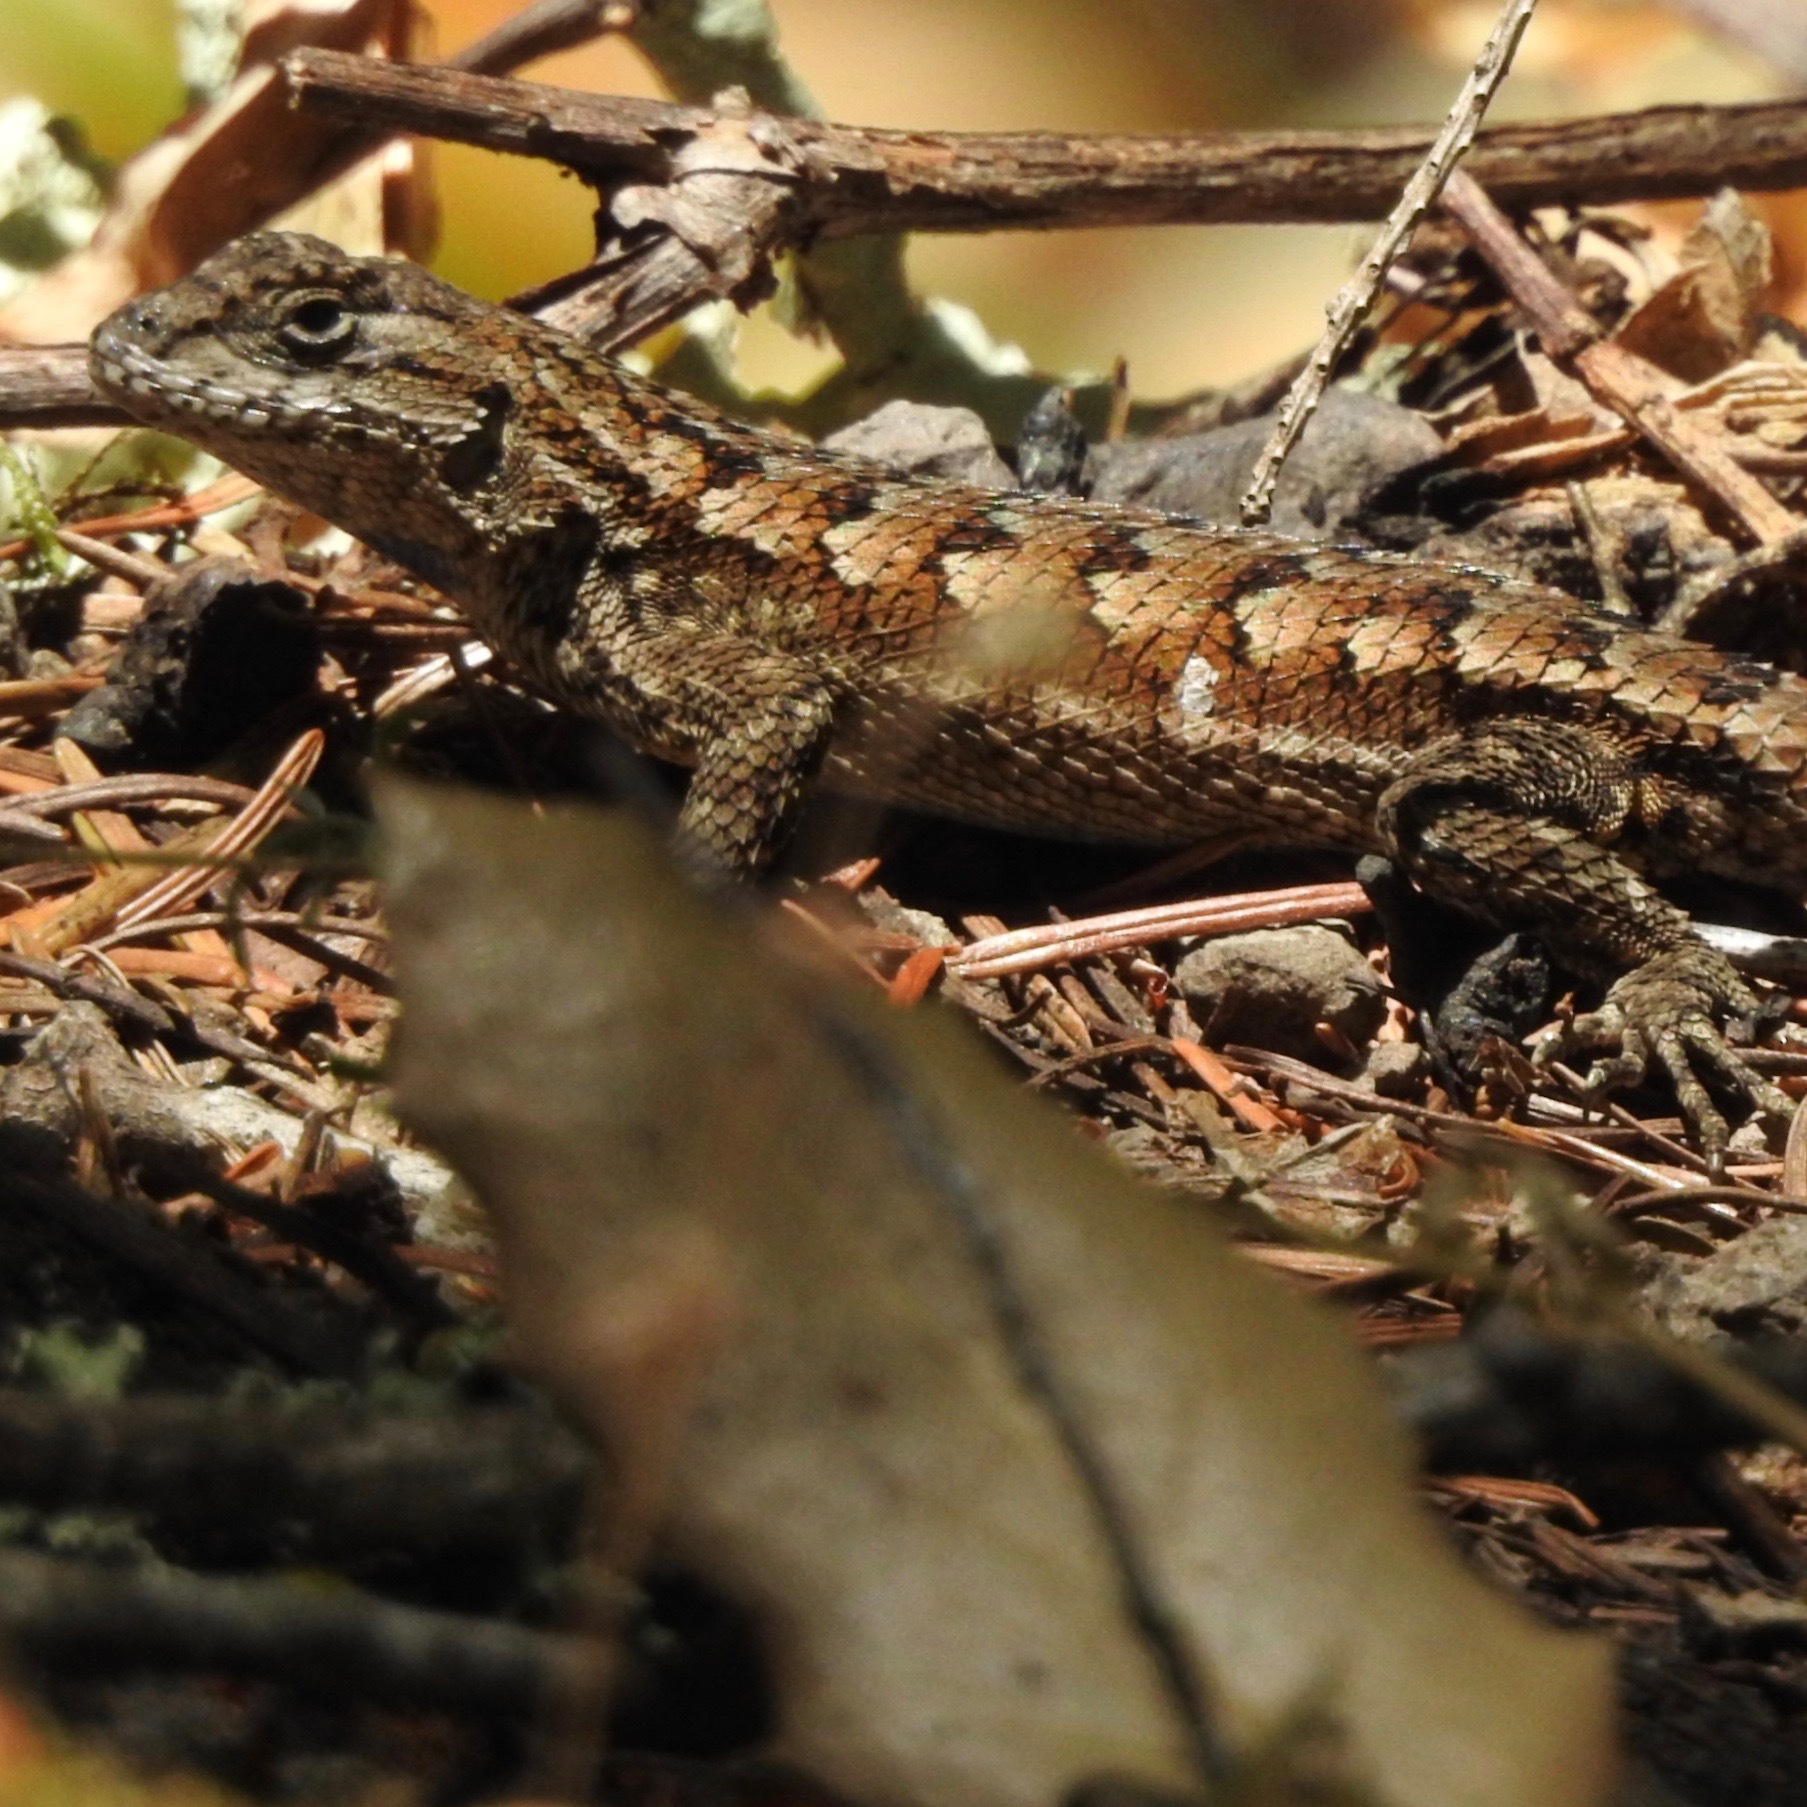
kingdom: Animalia
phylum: Chordata
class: Squamata
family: Phrynosomatidae
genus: Sceloporus
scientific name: Sceloporus occidentalis
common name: Western fence lizard
